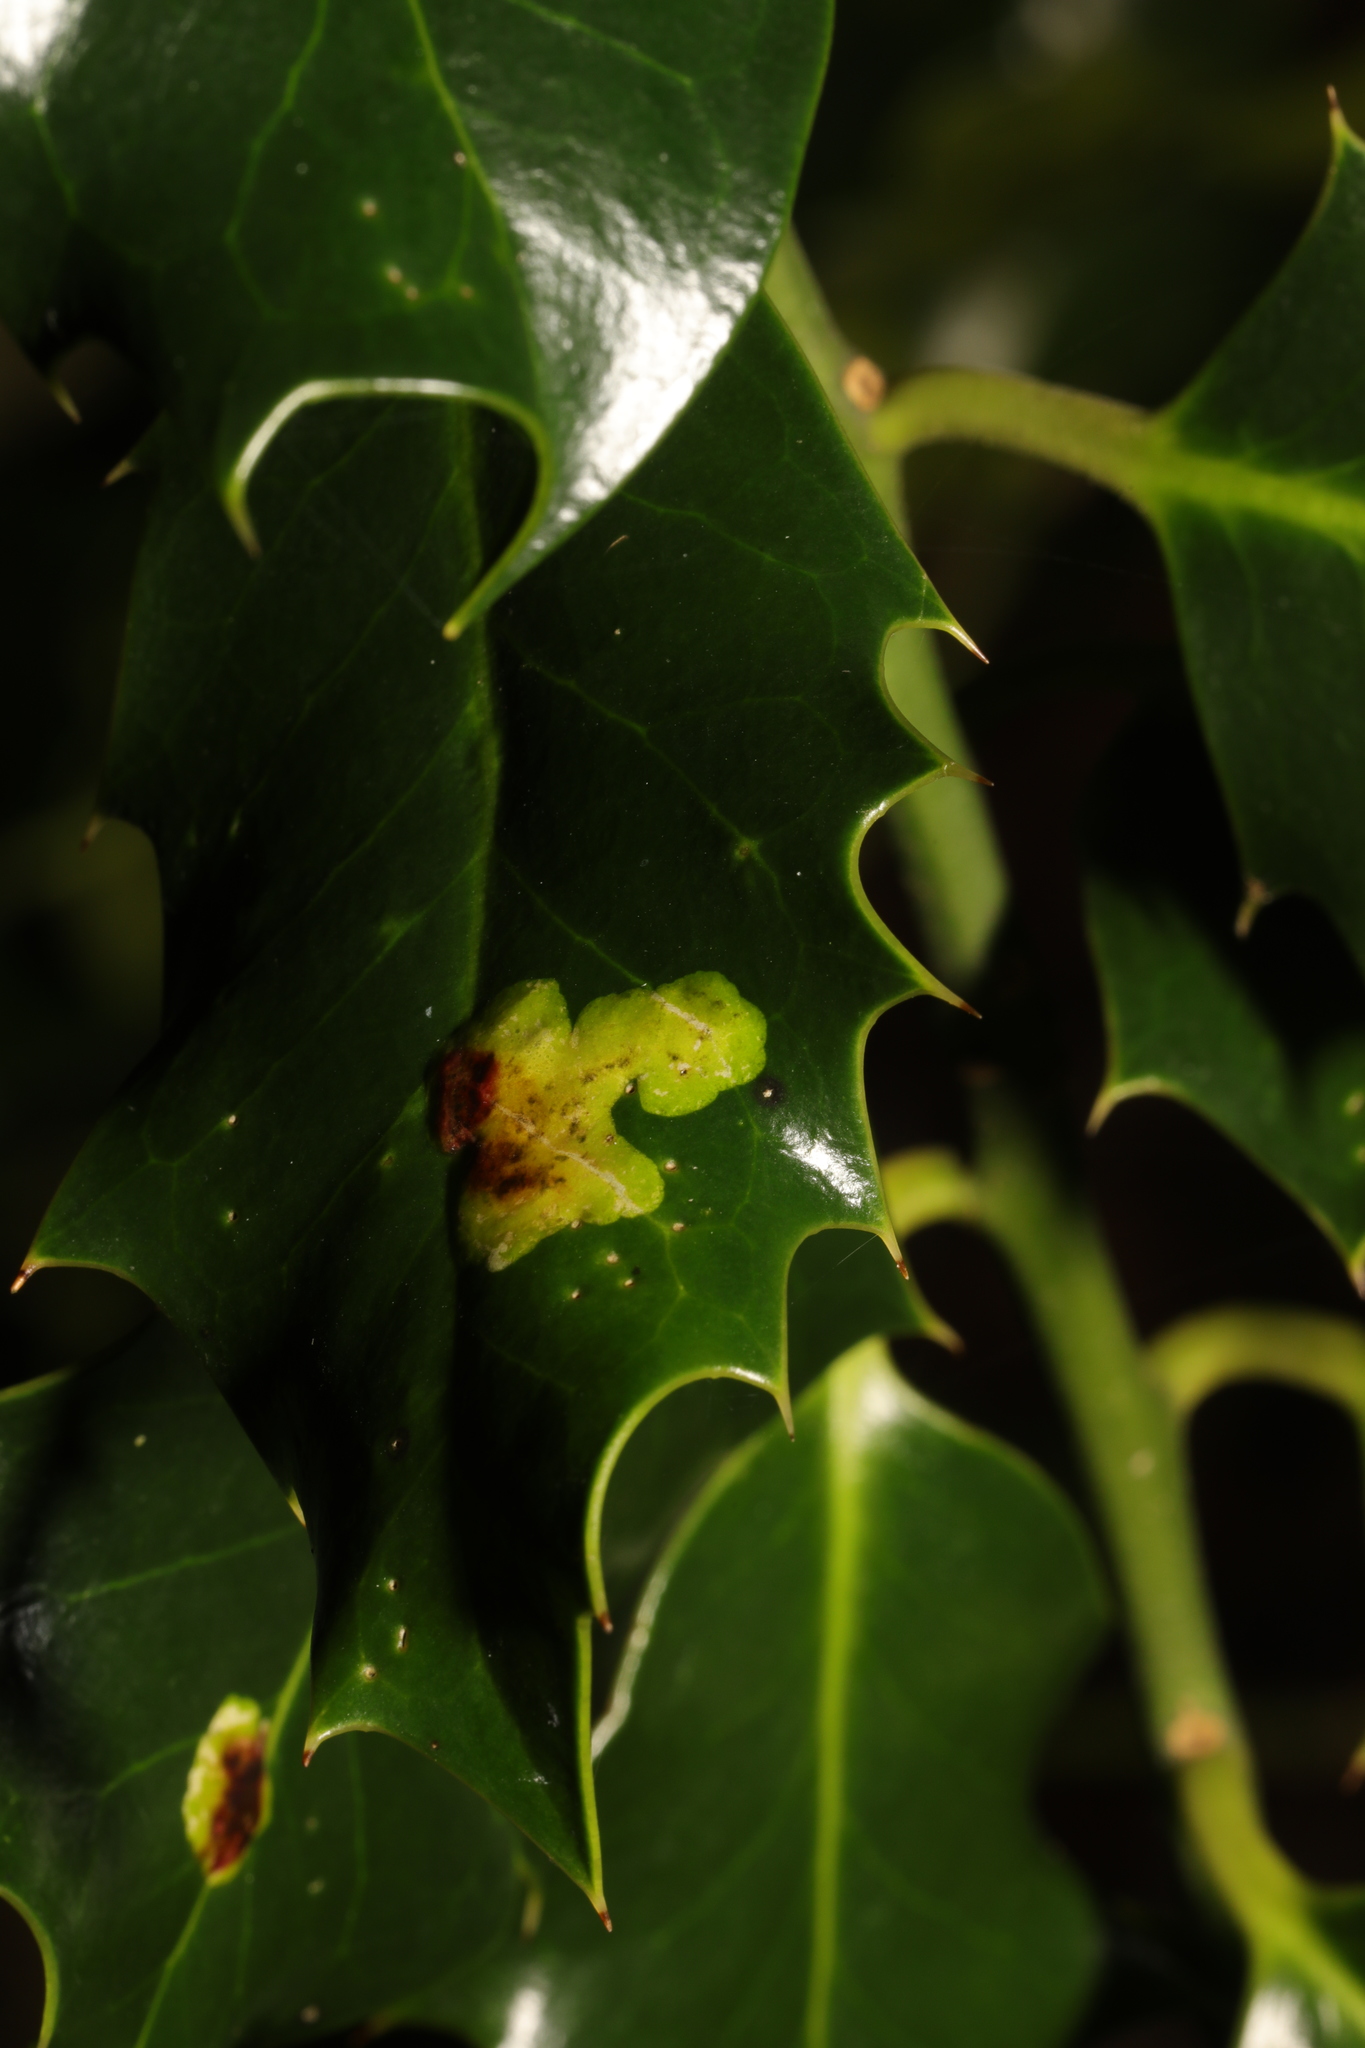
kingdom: Animalia
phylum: Arthropoda
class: Insecta
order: Diptera
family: Agromyzidae
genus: Phytomyza
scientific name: Phytomyza ilicis
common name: Holly leafminer
